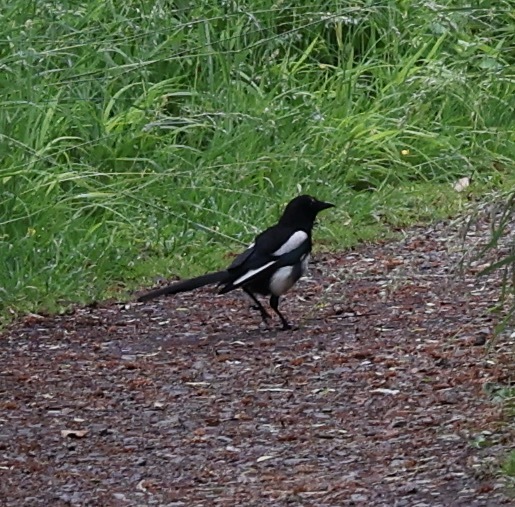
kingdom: Animalia
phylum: Chordata
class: Aves
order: Passeriformes
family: Corvidae
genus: Pica
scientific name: Pica pica
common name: Eurasian magpie
